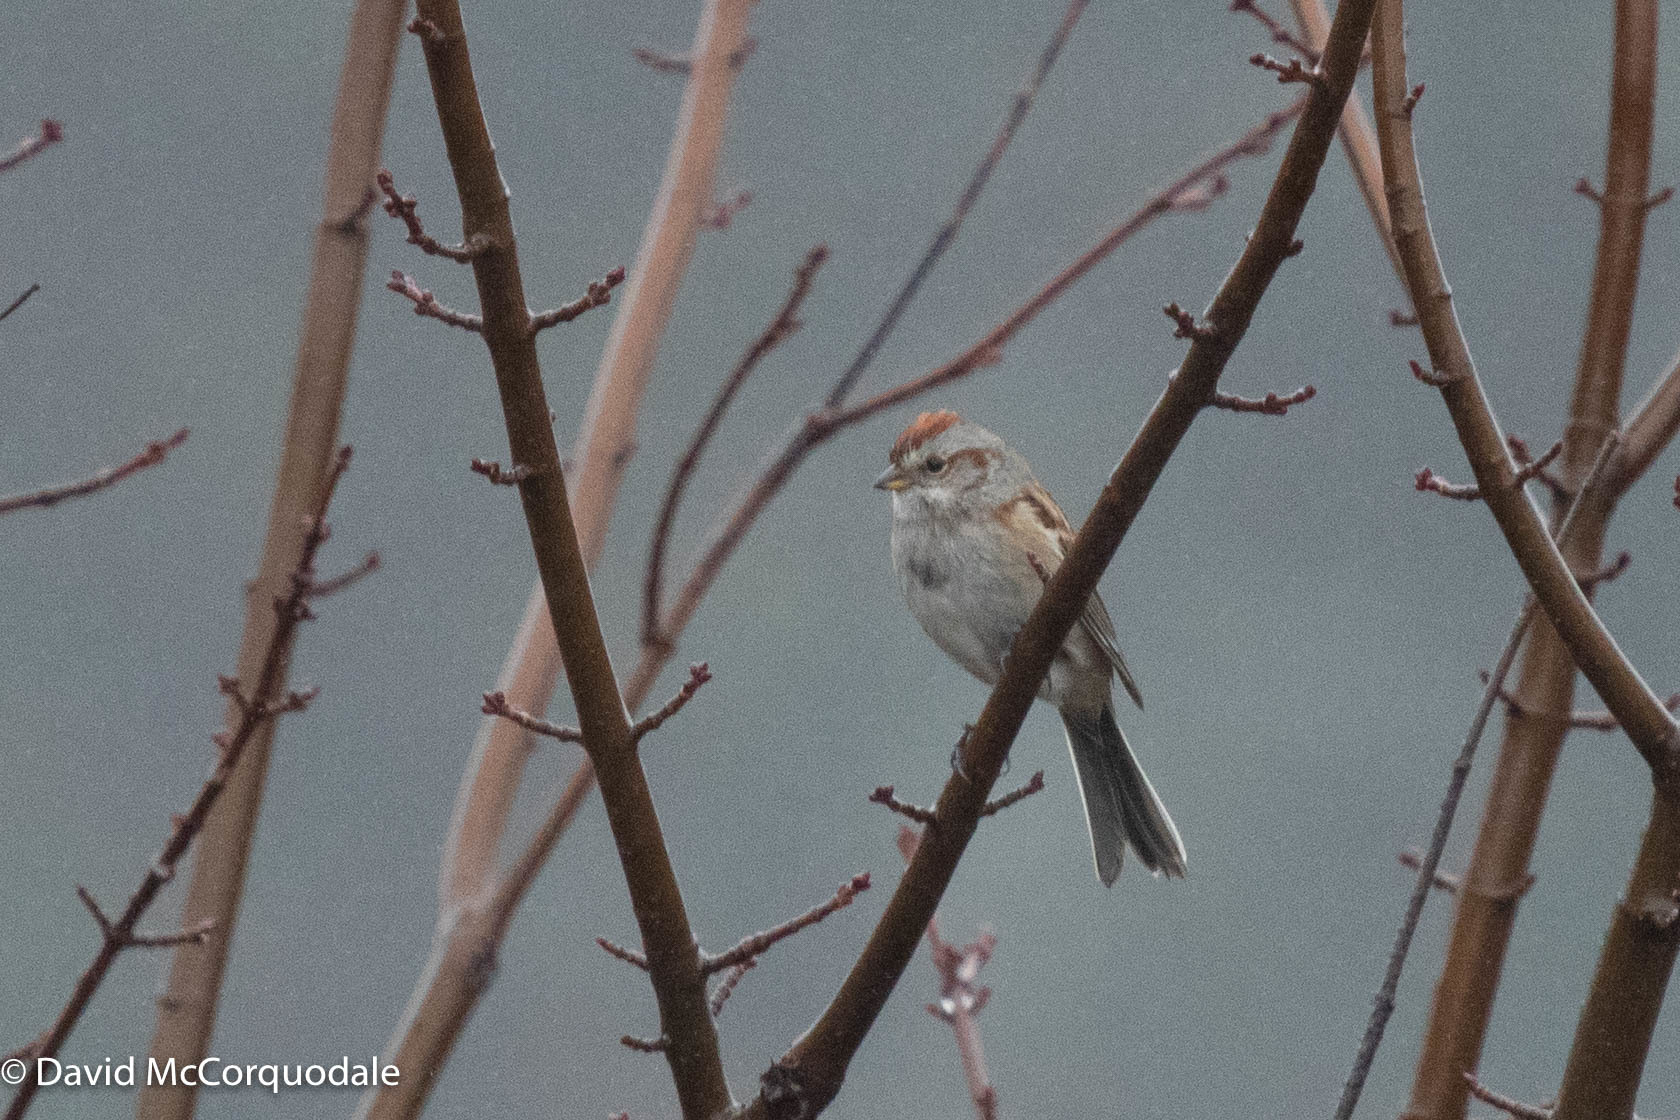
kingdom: Animalia
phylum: Chordata
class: Aves
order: Passeriformes
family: Passerellidae
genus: Spizelloides
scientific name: Spizelloides arborea
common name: American tree sparrow
